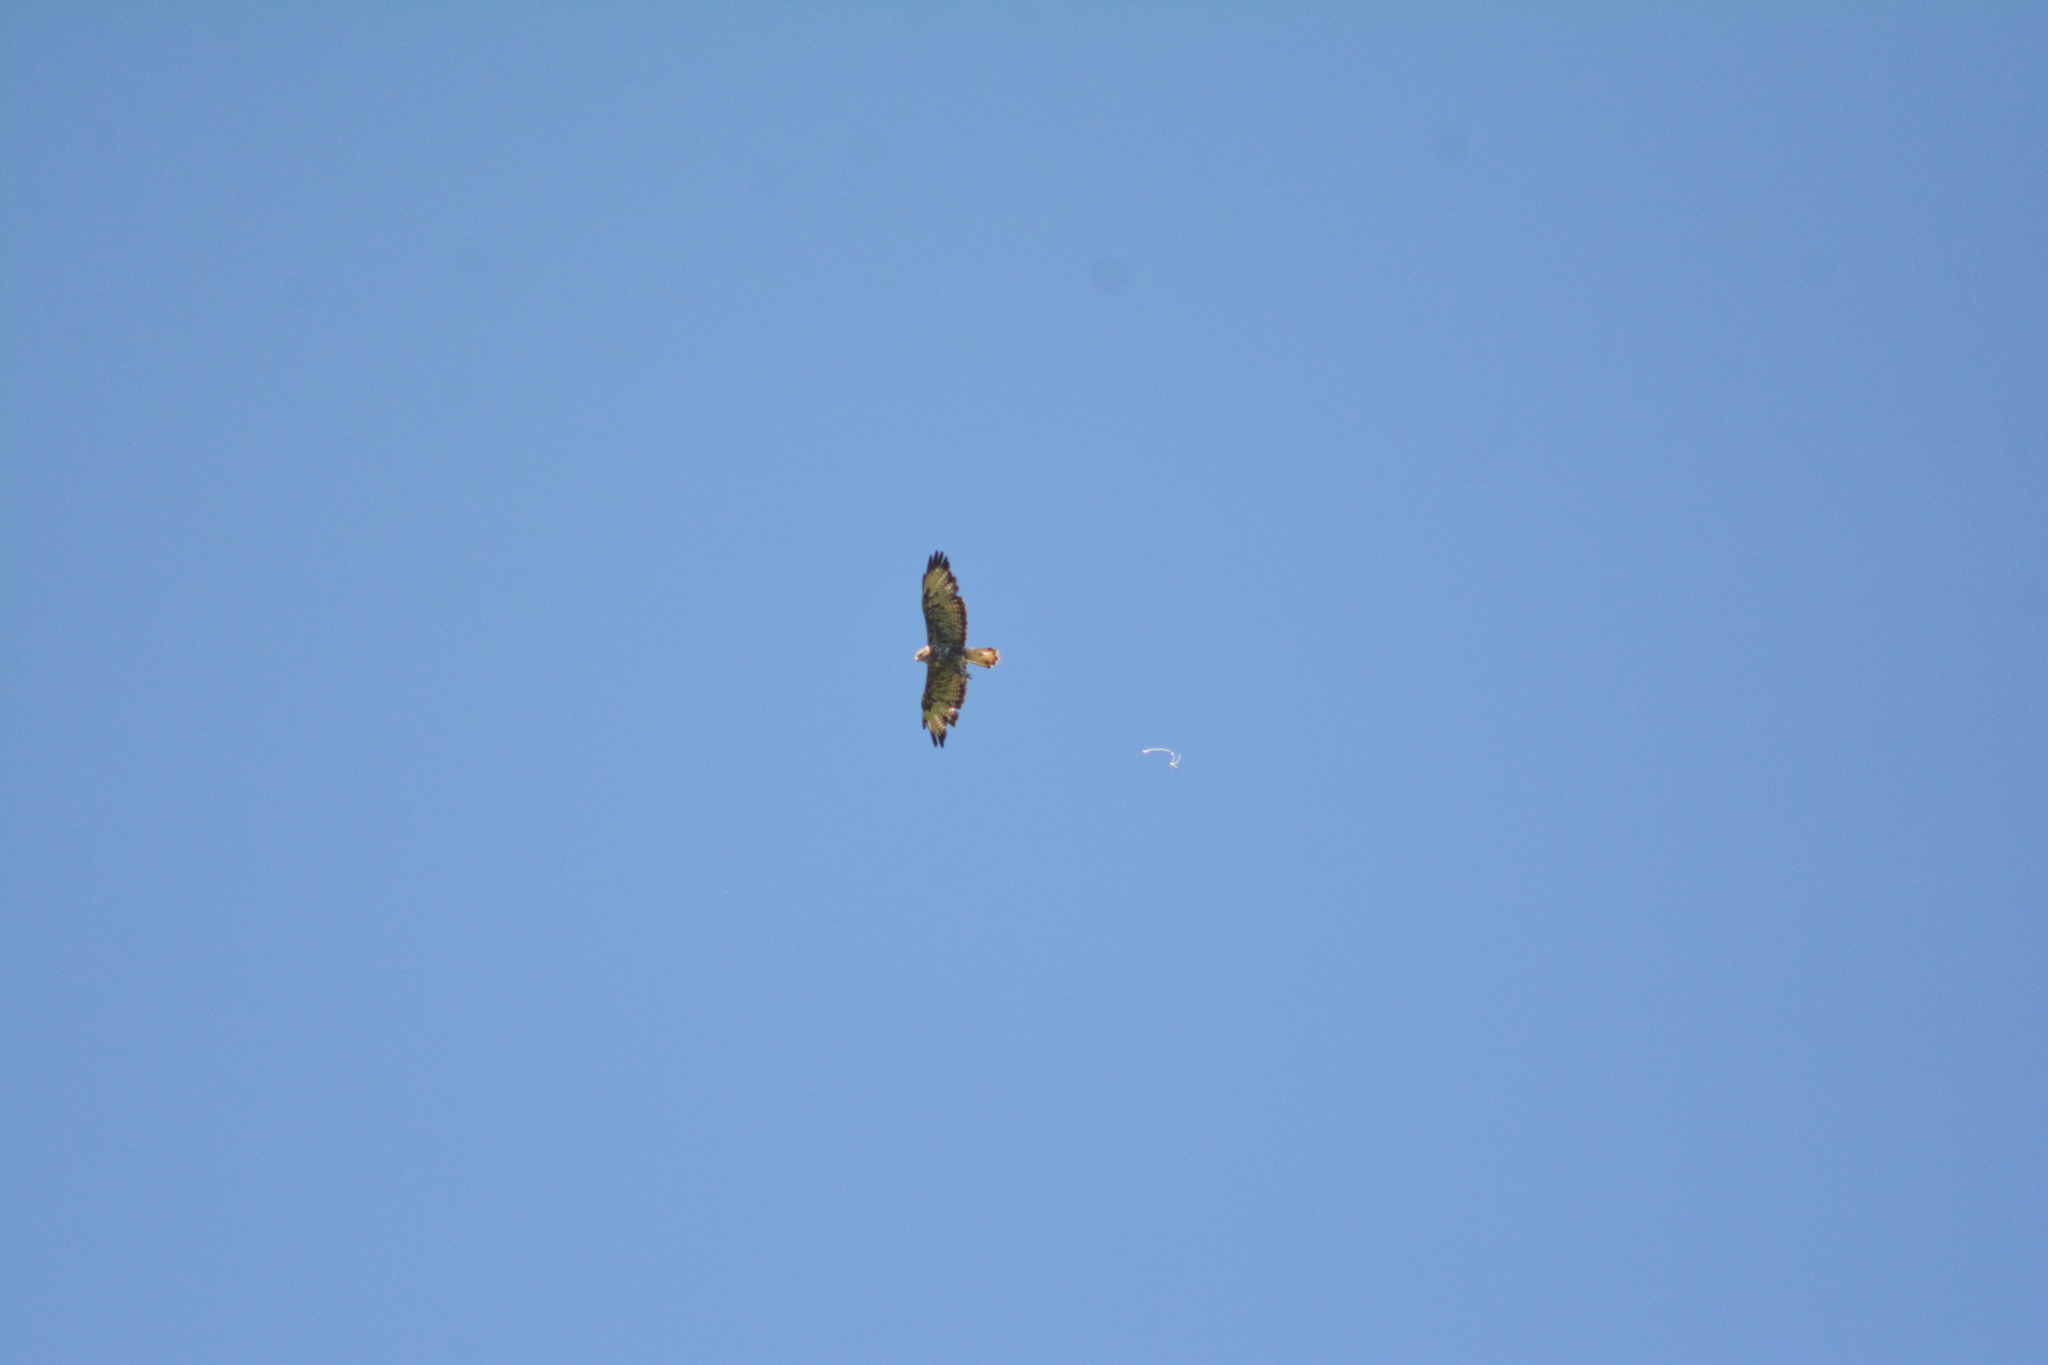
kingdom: Animalia
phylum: Chordata
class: Aves
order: Accipitriformes
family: Accipitridae
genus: Buteo
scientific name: Buteo buteo
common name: Common buzzard
